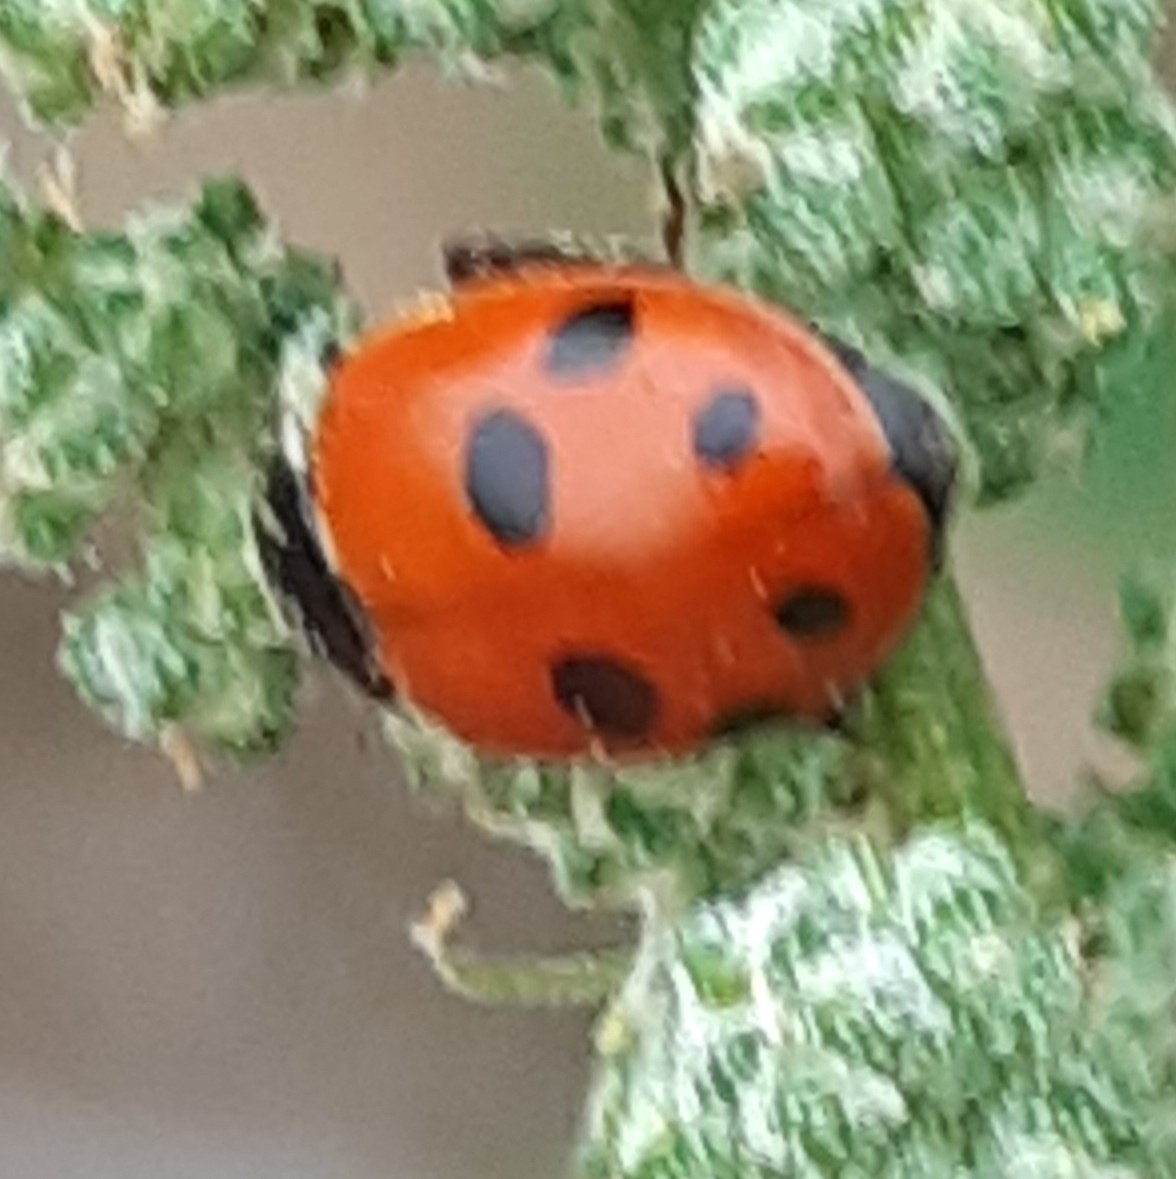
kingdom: Animalia
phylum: Arthropoda
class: Insecta
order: Coleoptera
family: Coccinellidae
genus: Hippodamia
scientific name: Hippodamia variegata
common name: Ladybird beetle
